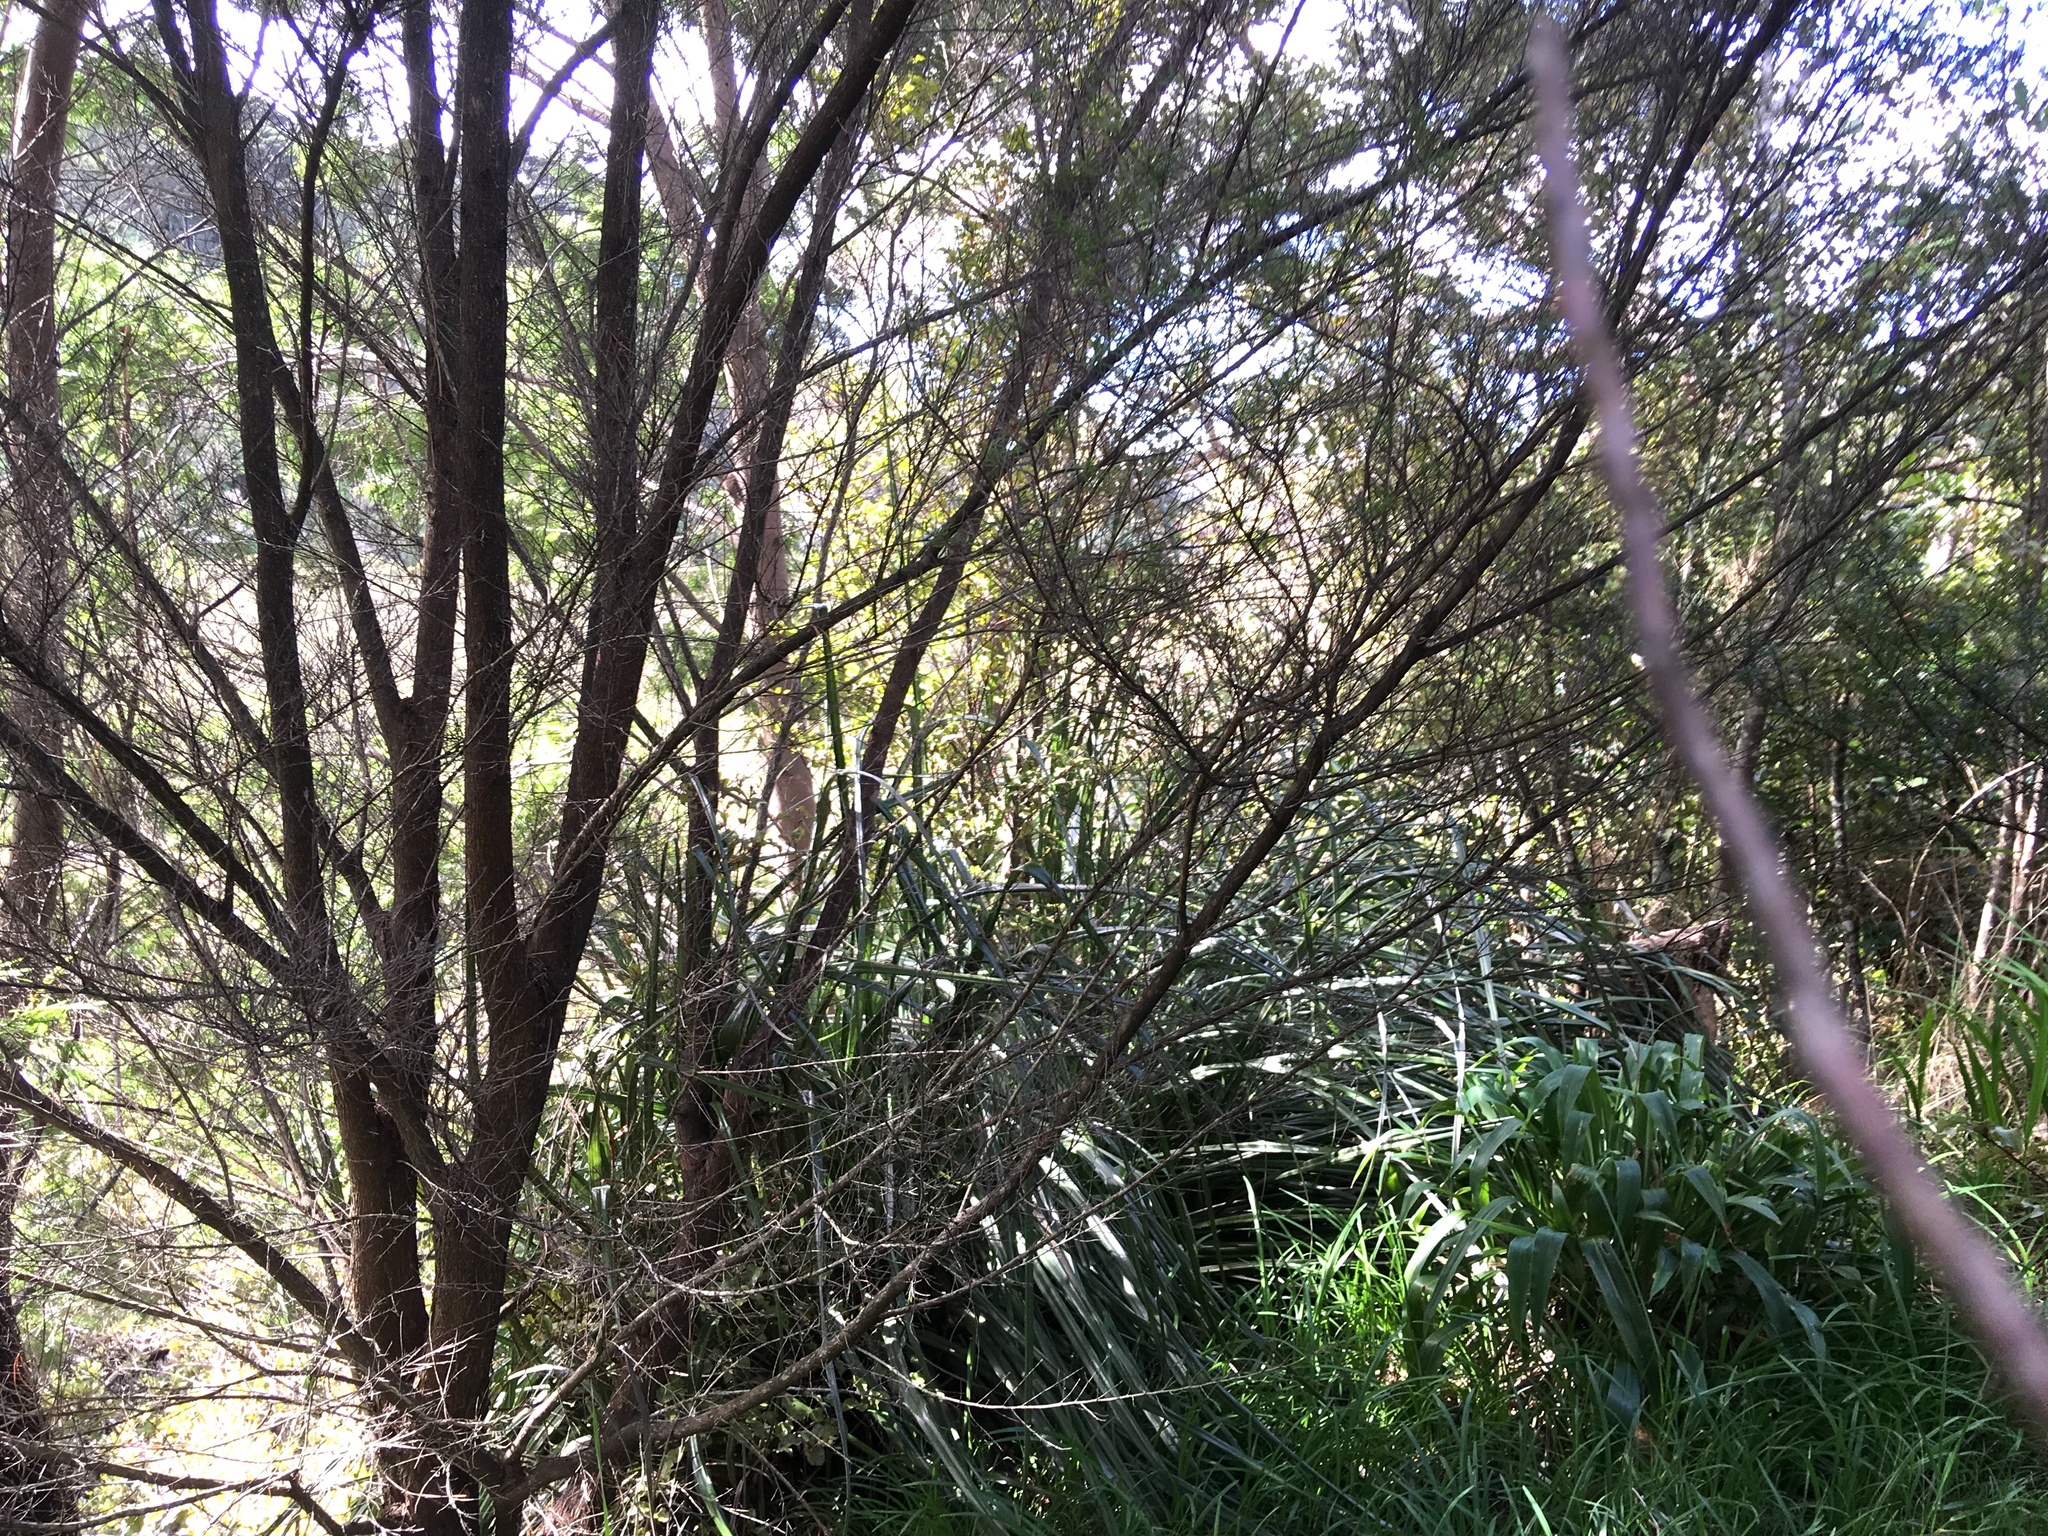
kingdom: Plantae
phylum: Tracheophyta
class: Liliopsida
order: Asparagales
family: Asteliaceae
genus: Astelia
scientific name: Astelia banksii
